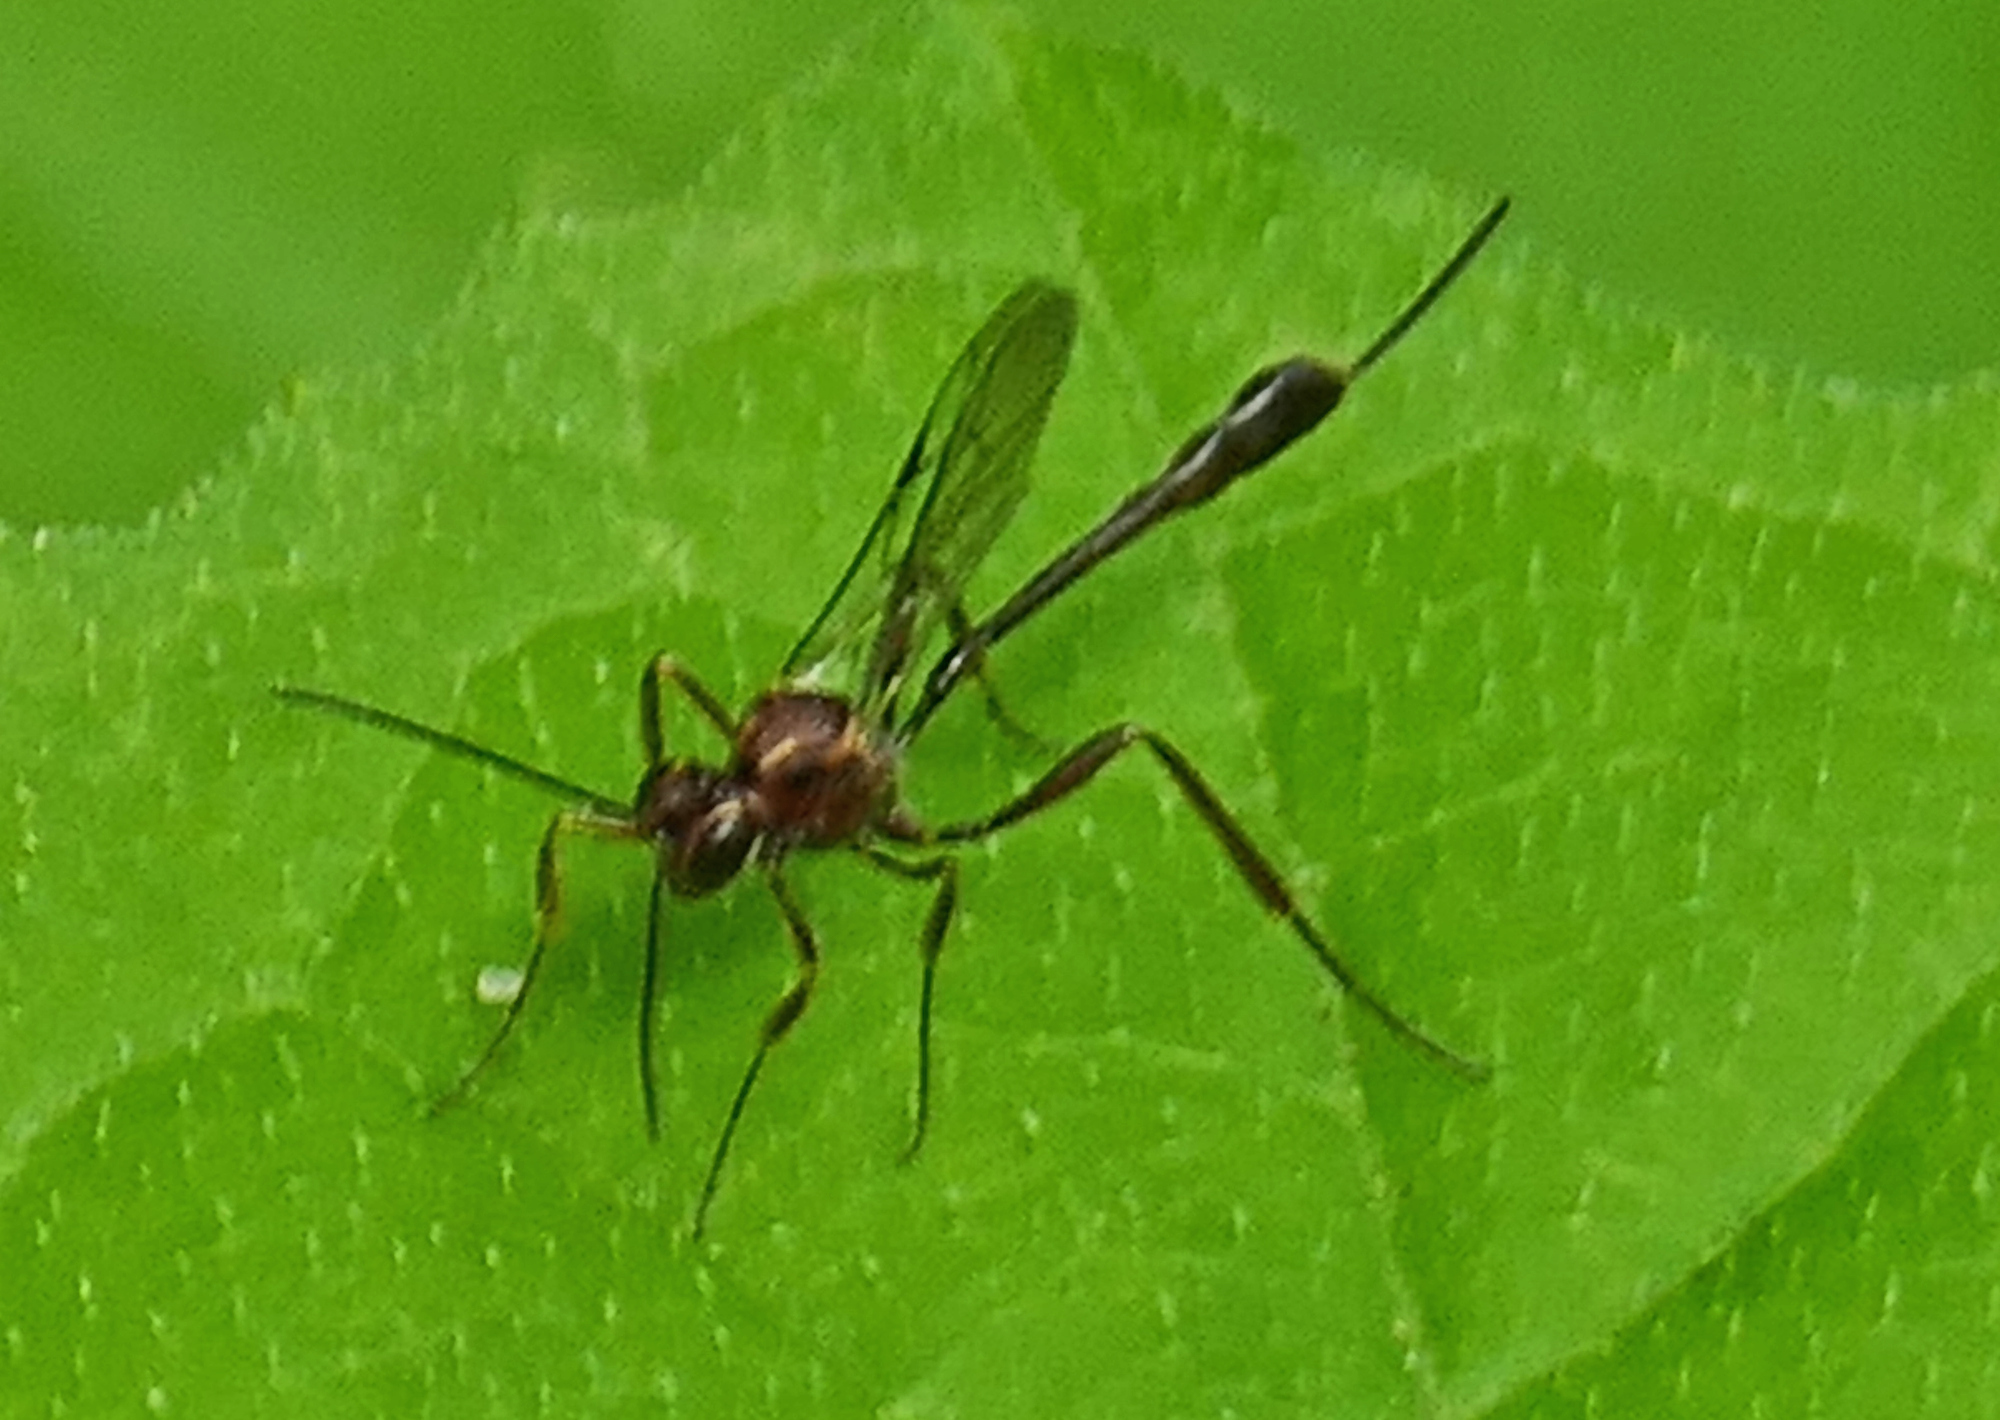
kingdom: Animalia
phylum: Arthropoda
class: Insecta
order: Hymenoptera
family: Ichneumonidae
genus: Anomalon
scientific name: Anomalon
